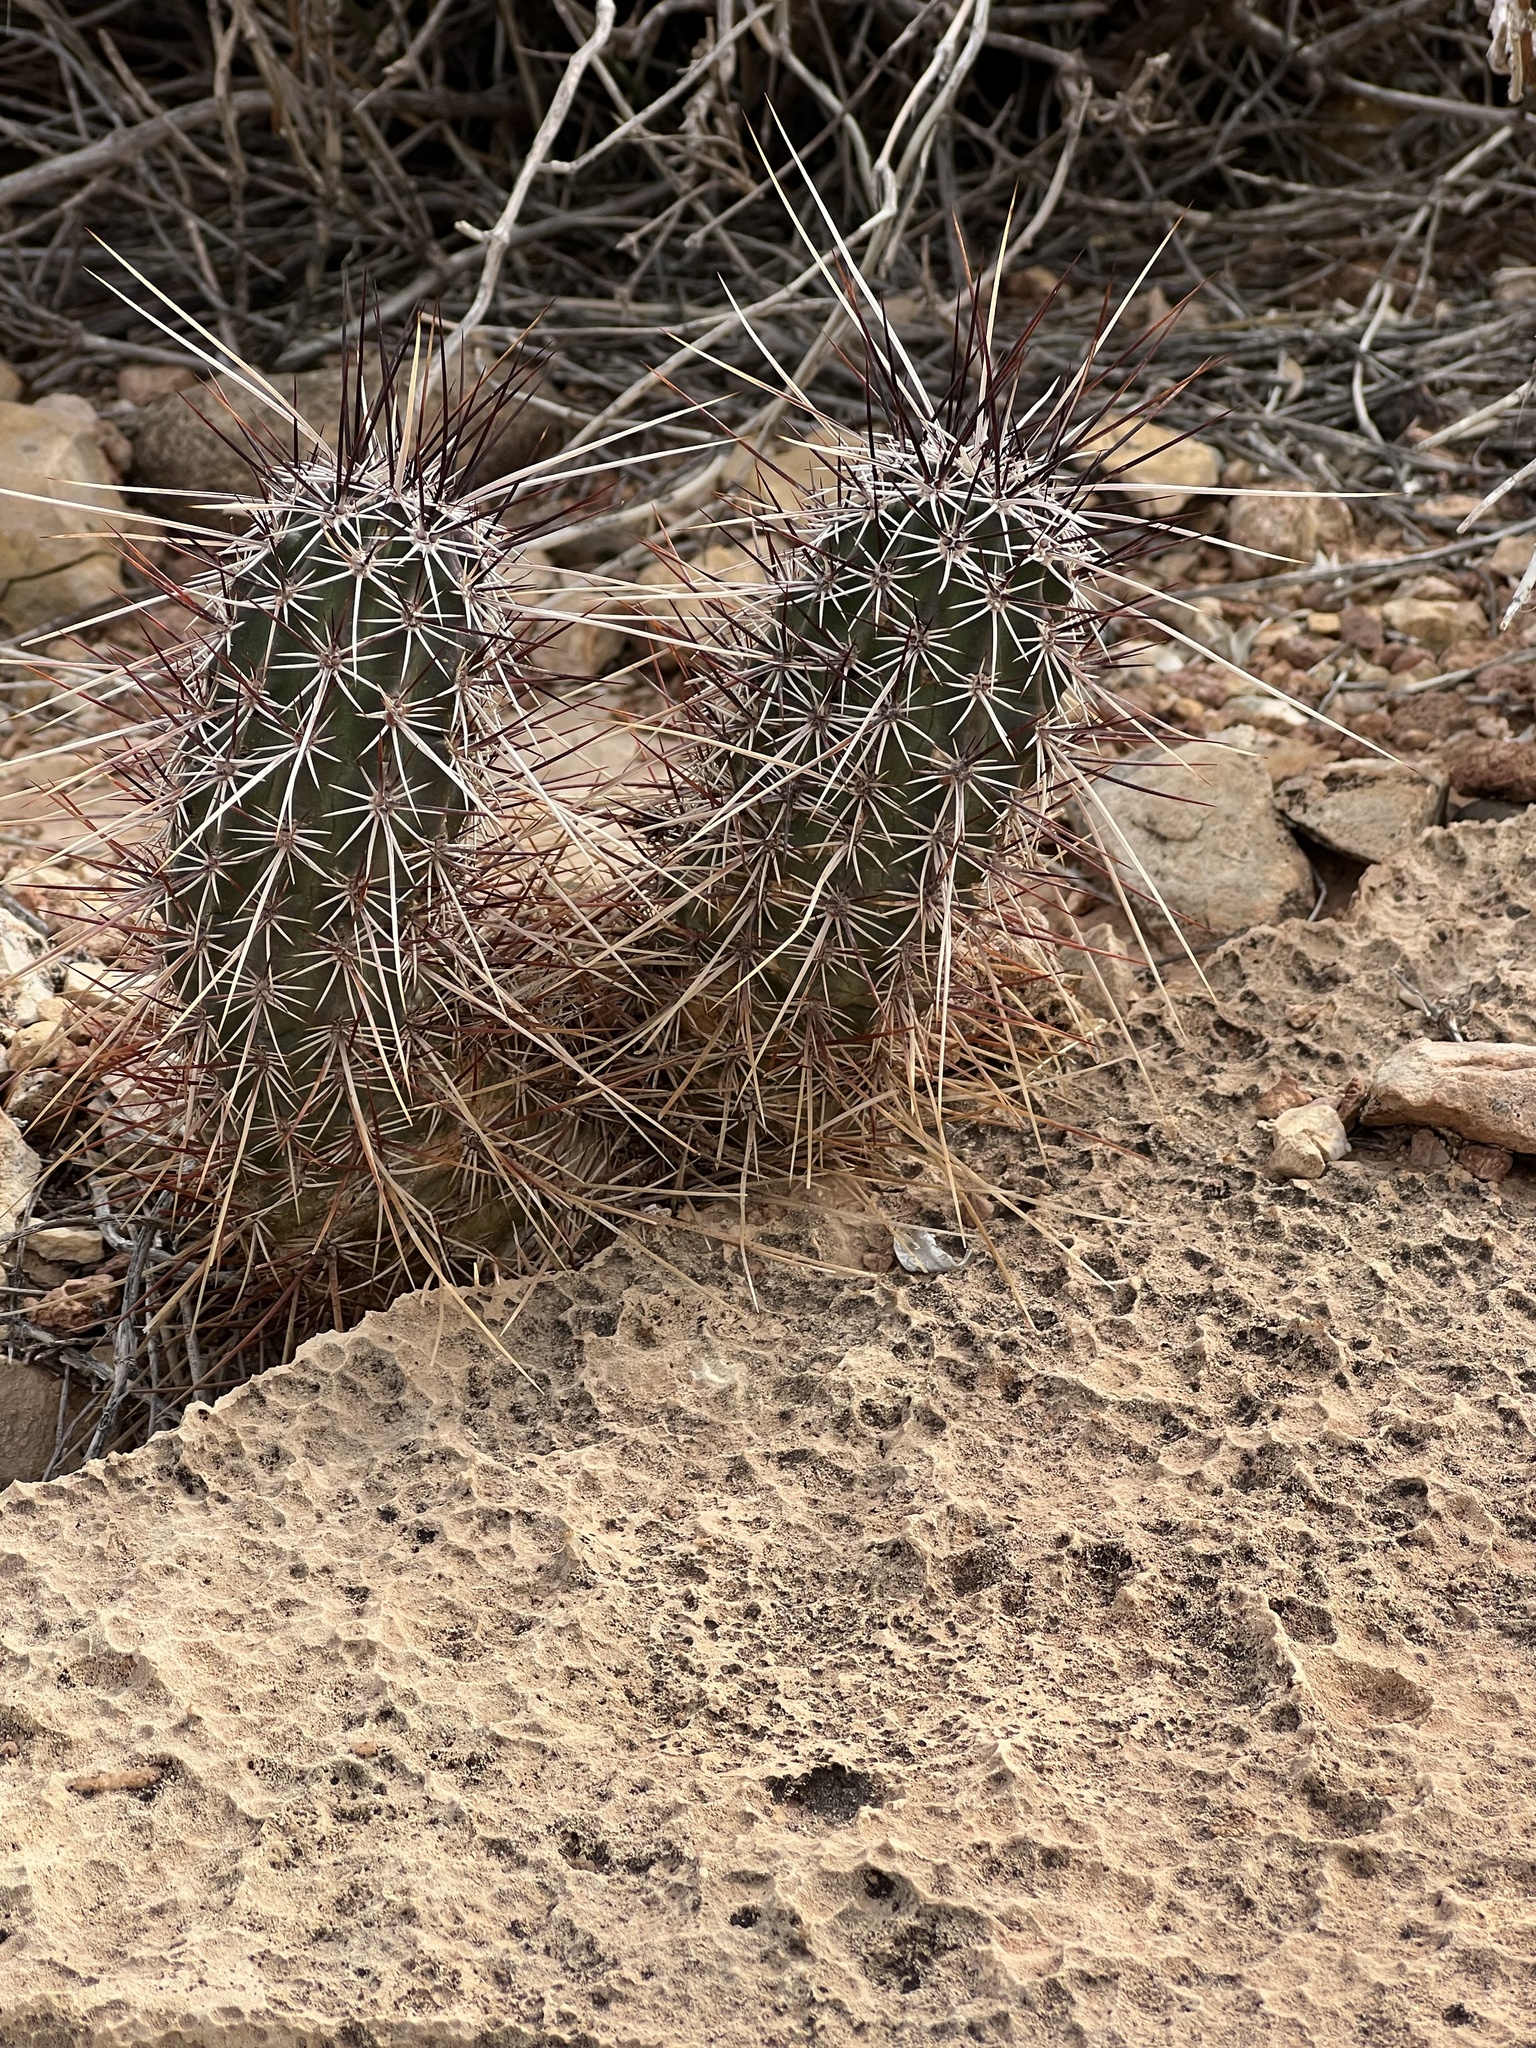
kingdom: Plantae
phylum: Tracheophyta
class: Magnoliopsida
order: Caryophyllales
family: Cactaceae
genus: Echinocereus
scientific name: Echinocereus engelmannii
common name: Engelmann's hedgehog cactus
